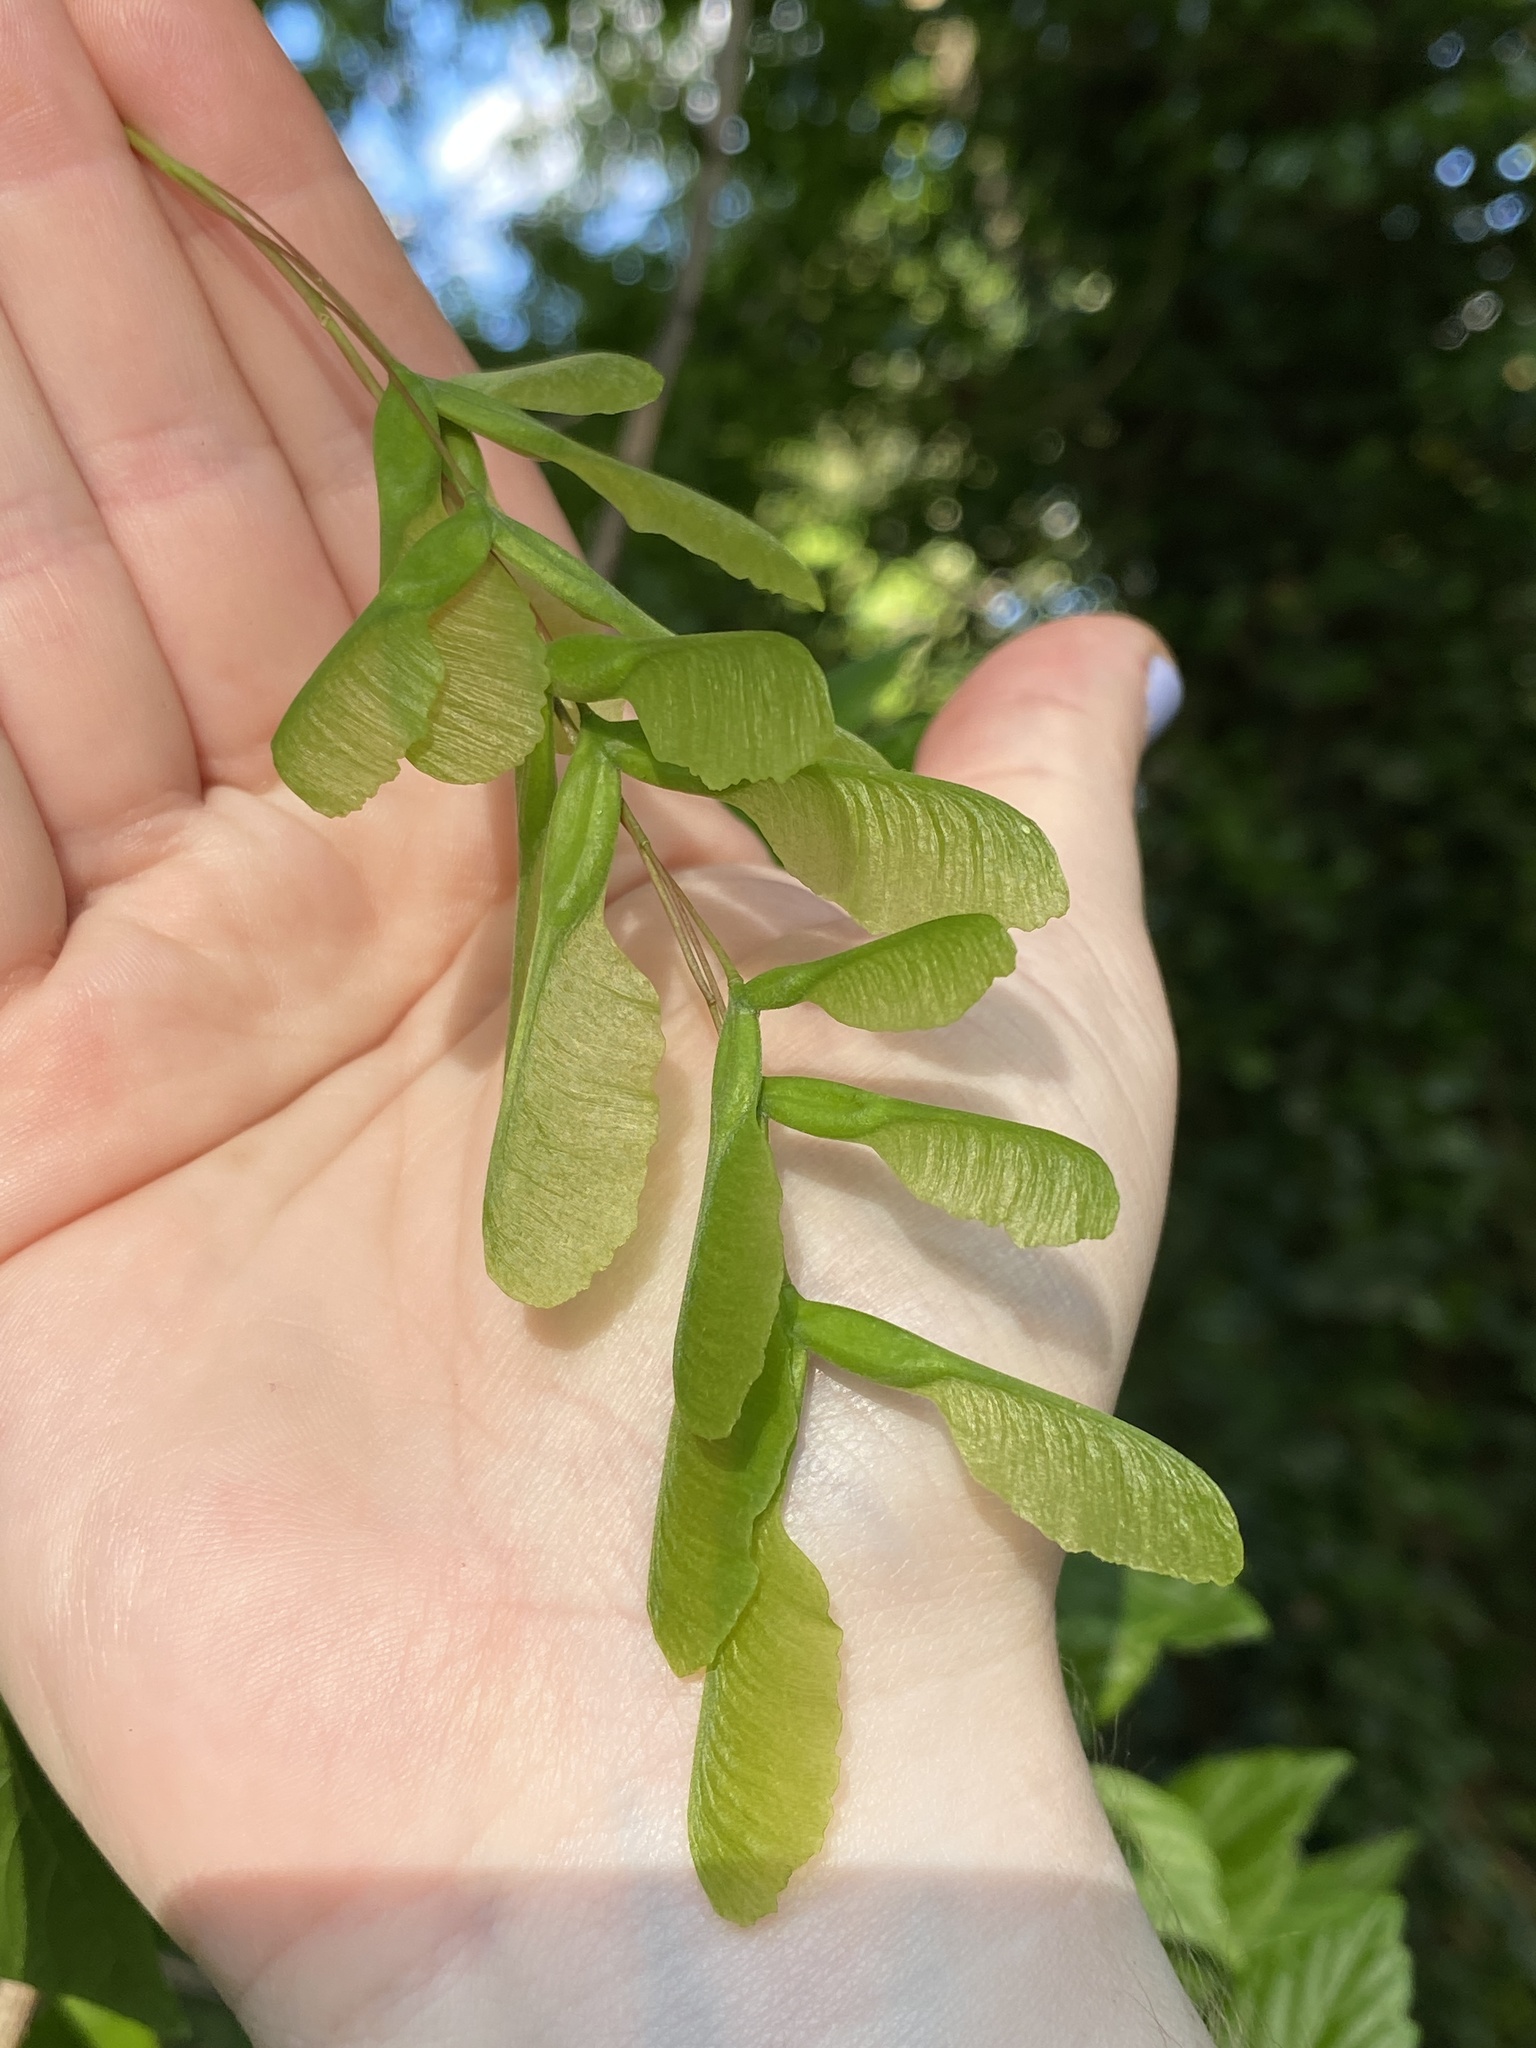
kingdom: Plantae
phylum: Tracheophyta
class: Magnoliopsida
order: Sapindales
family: Sapindaceae
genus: Acer
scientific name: Acer negundo
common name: Ashleaf maple
